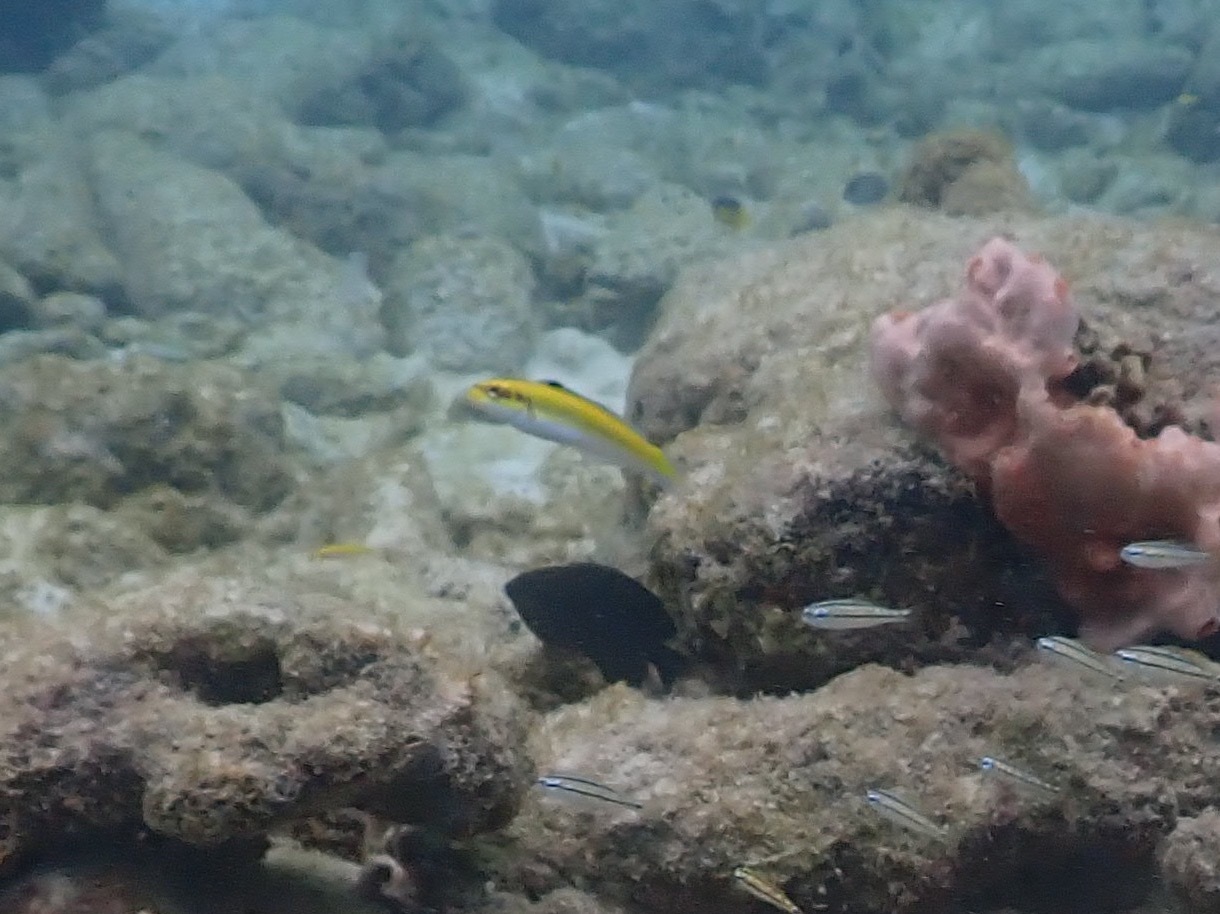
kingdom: Animalia
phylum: Chordata
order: Perciformes
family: Labridae
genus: Thalassoma
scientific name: Thalassoma bifasciatum
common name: Bluehead wrasse
